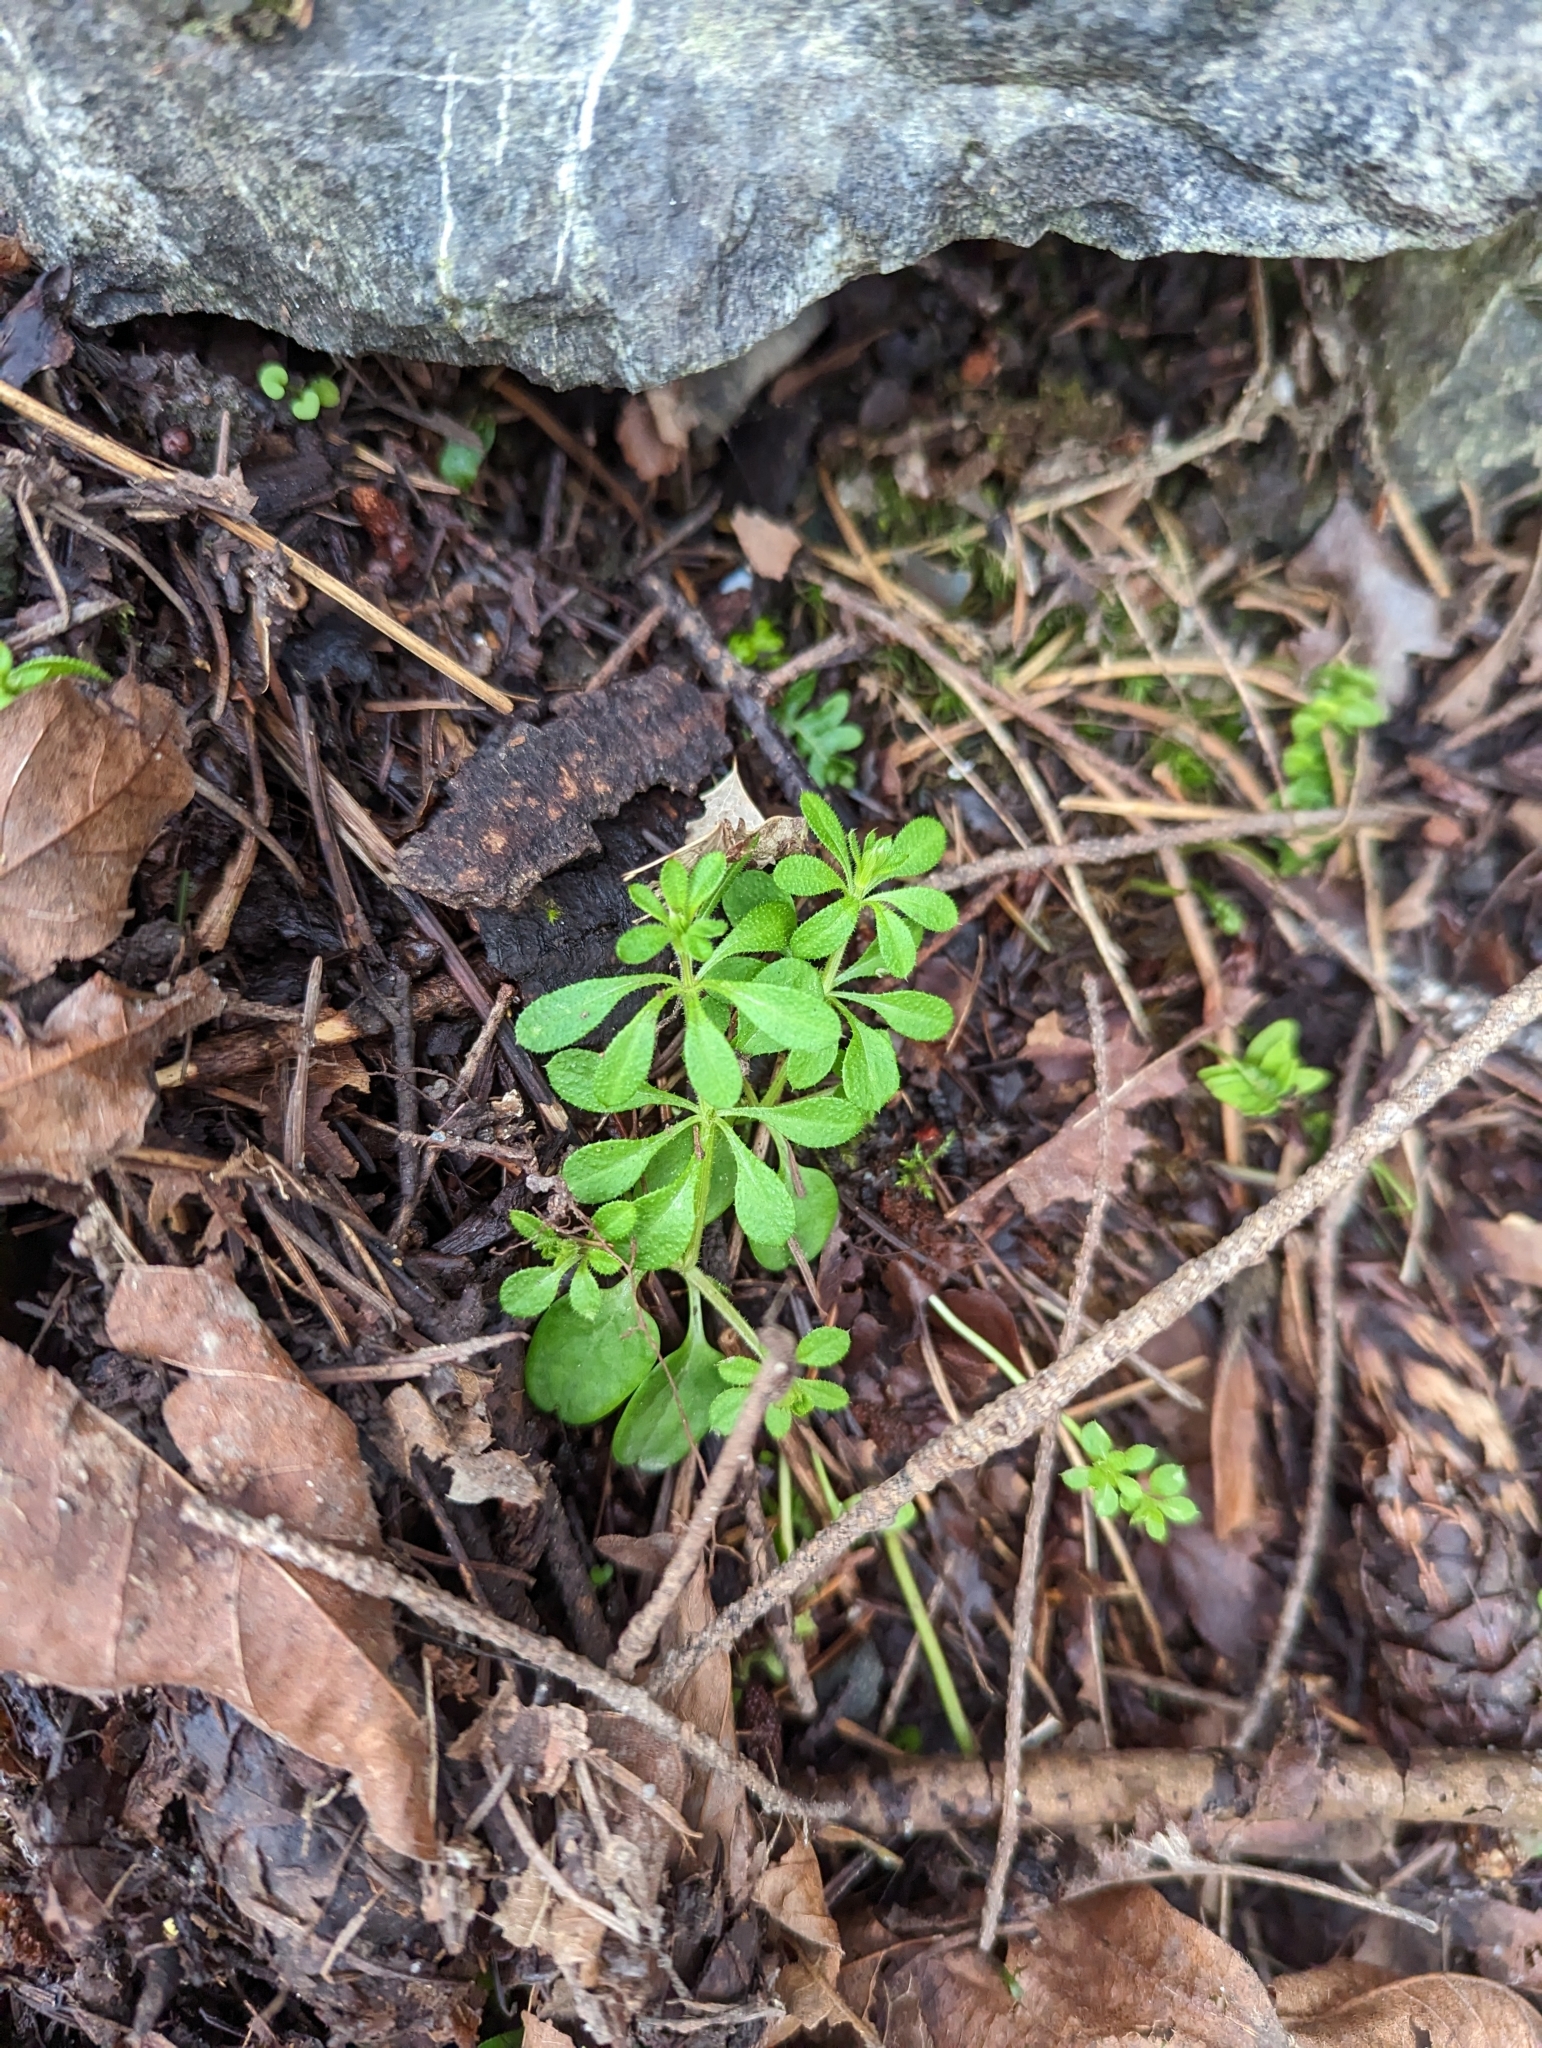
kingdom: Plantae
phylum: Tracheophyta
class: Magnoliopsida
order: Gentianales
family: Rubiaceae
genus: Galium
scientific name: Galium aparine
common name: Cleavers
